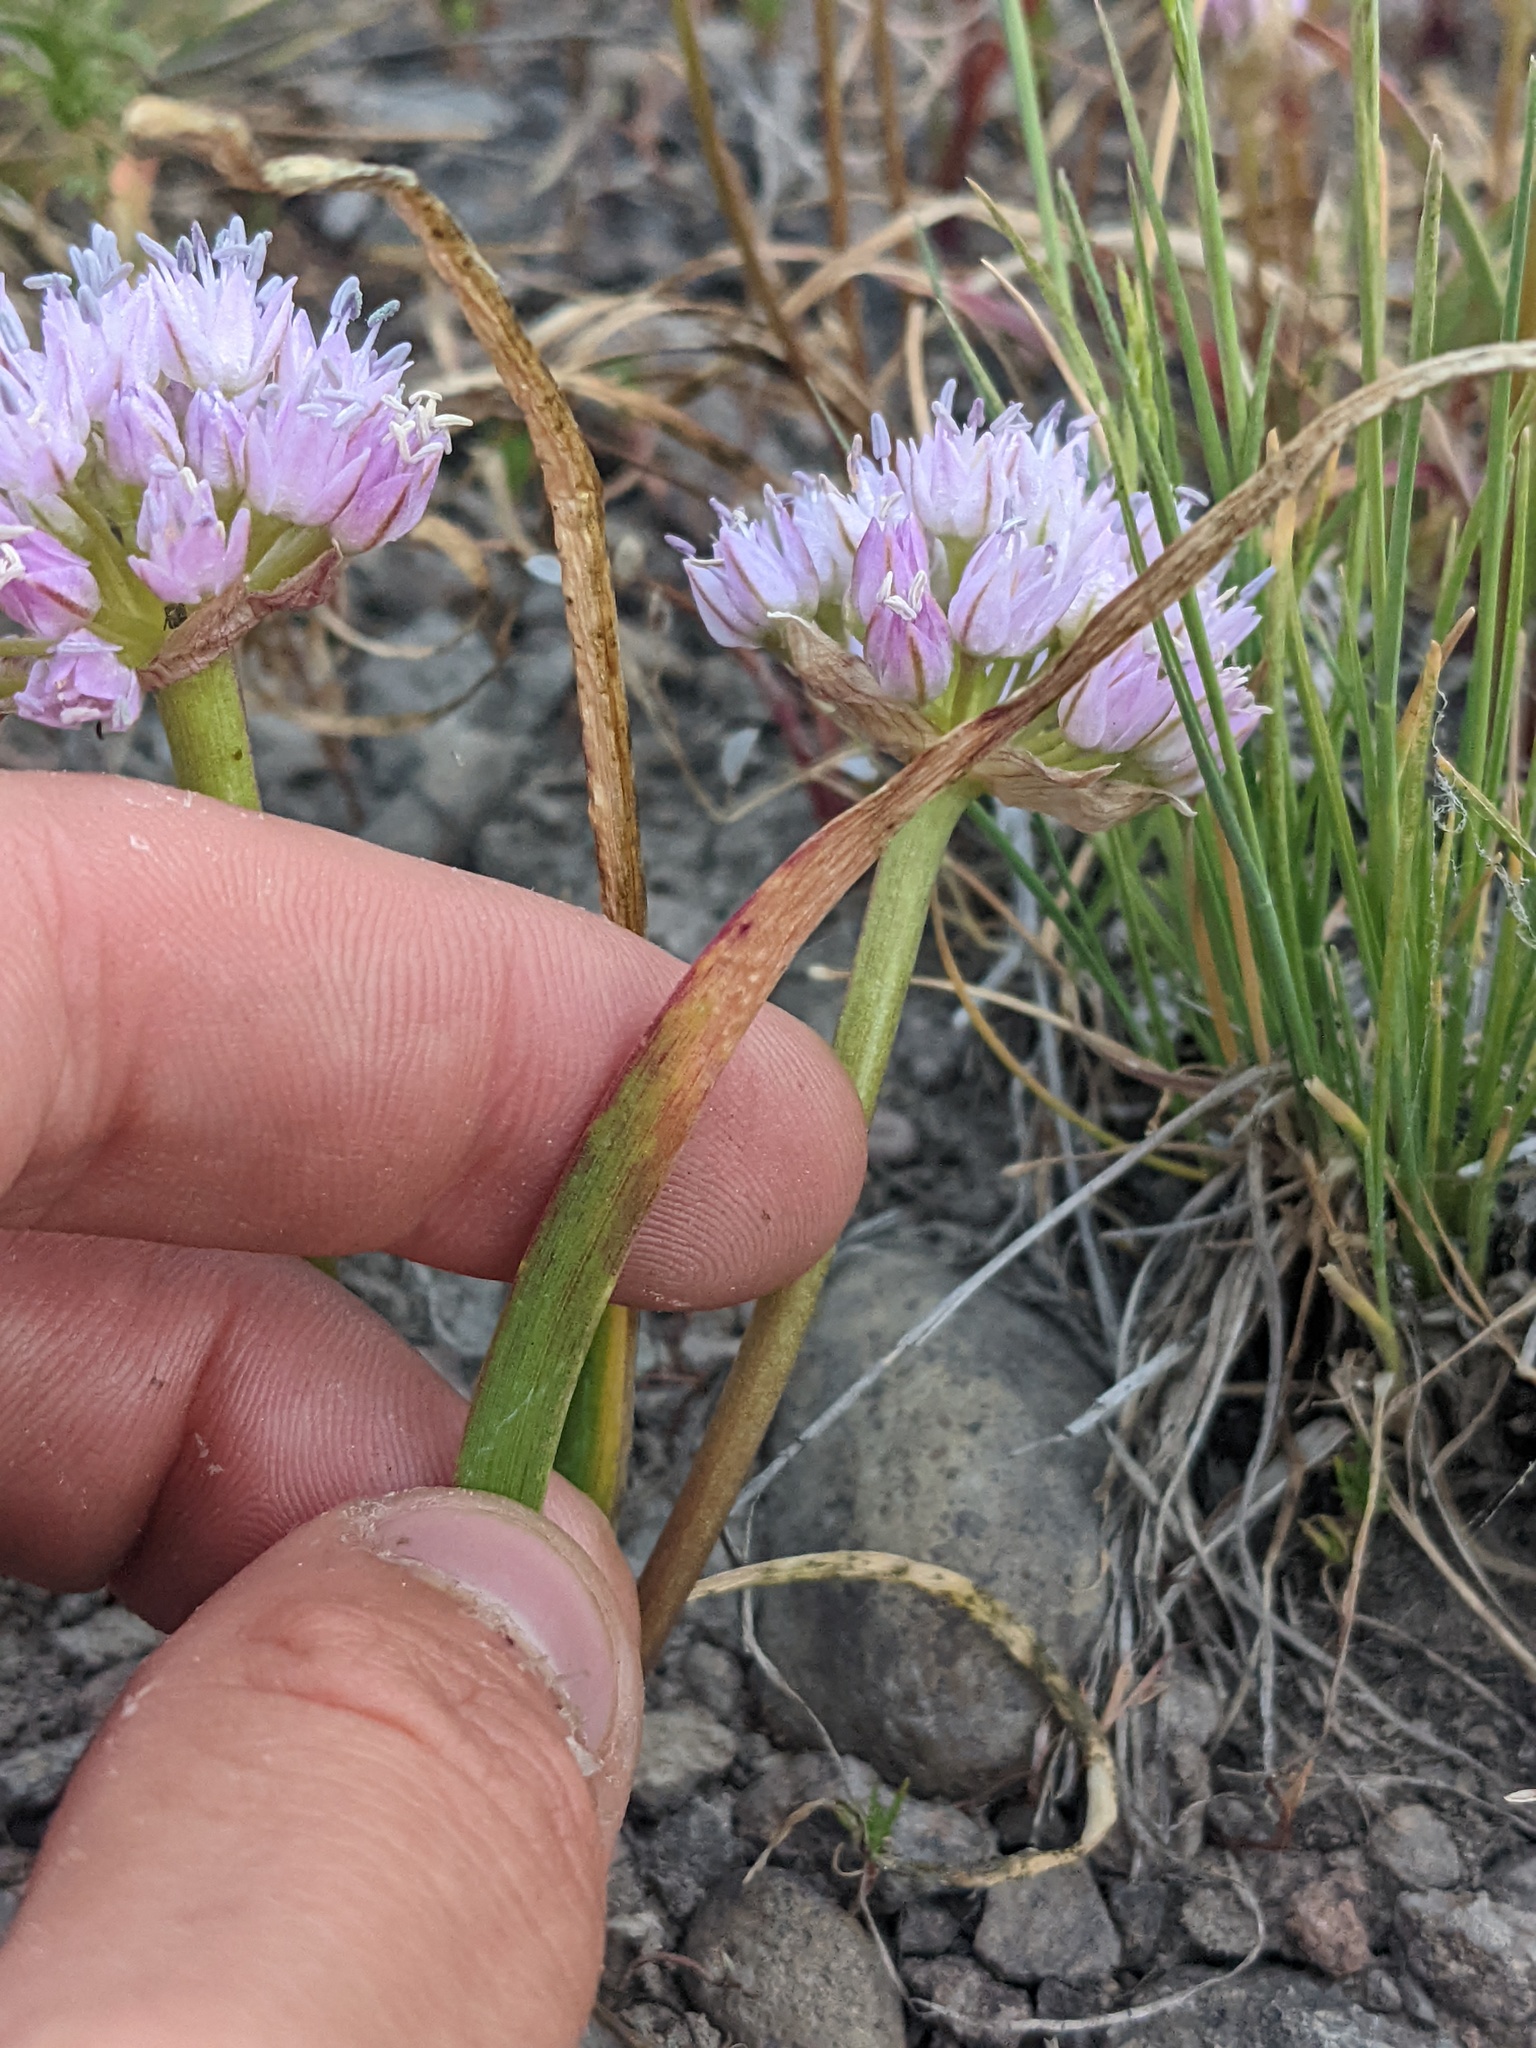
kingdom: Plantae
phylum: Tracheophyta
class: Liliopsida
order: Asparagales
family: Amaryllidaceae
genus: Allium
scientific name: Allium lemmonii
